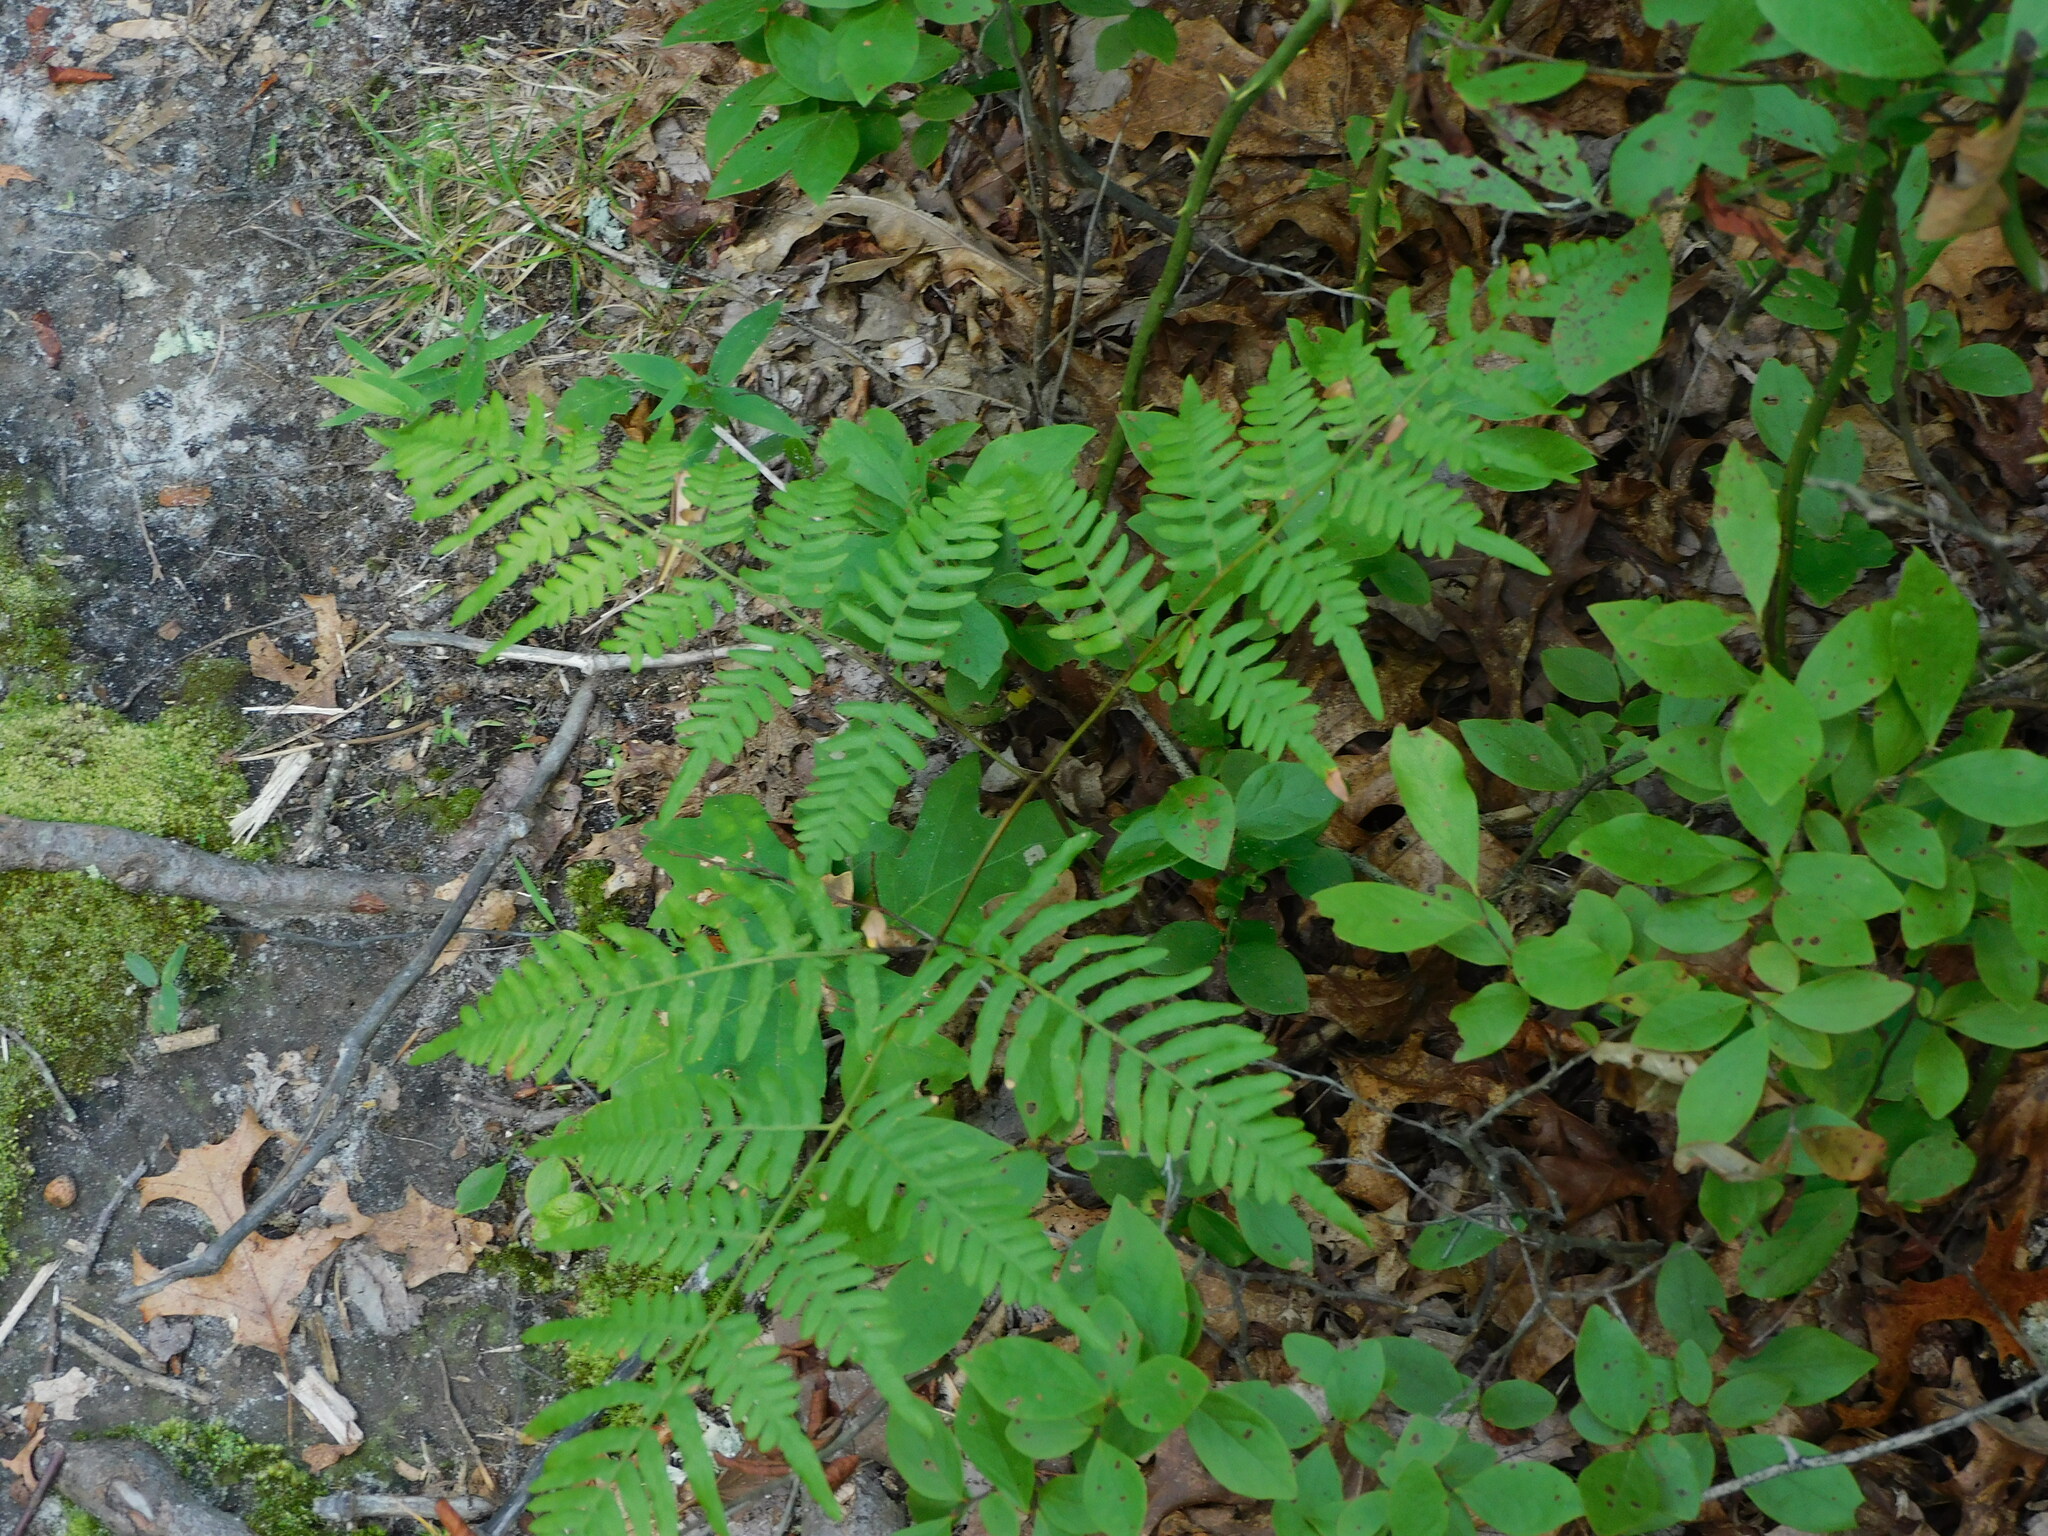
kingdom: Plantae
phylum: Tracheophyta
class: Polypodiopsida
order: Polypodiales
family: Dennstaedtiaceae
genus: Pteridium
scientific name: Pteridium aquilinum
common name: Bracken
